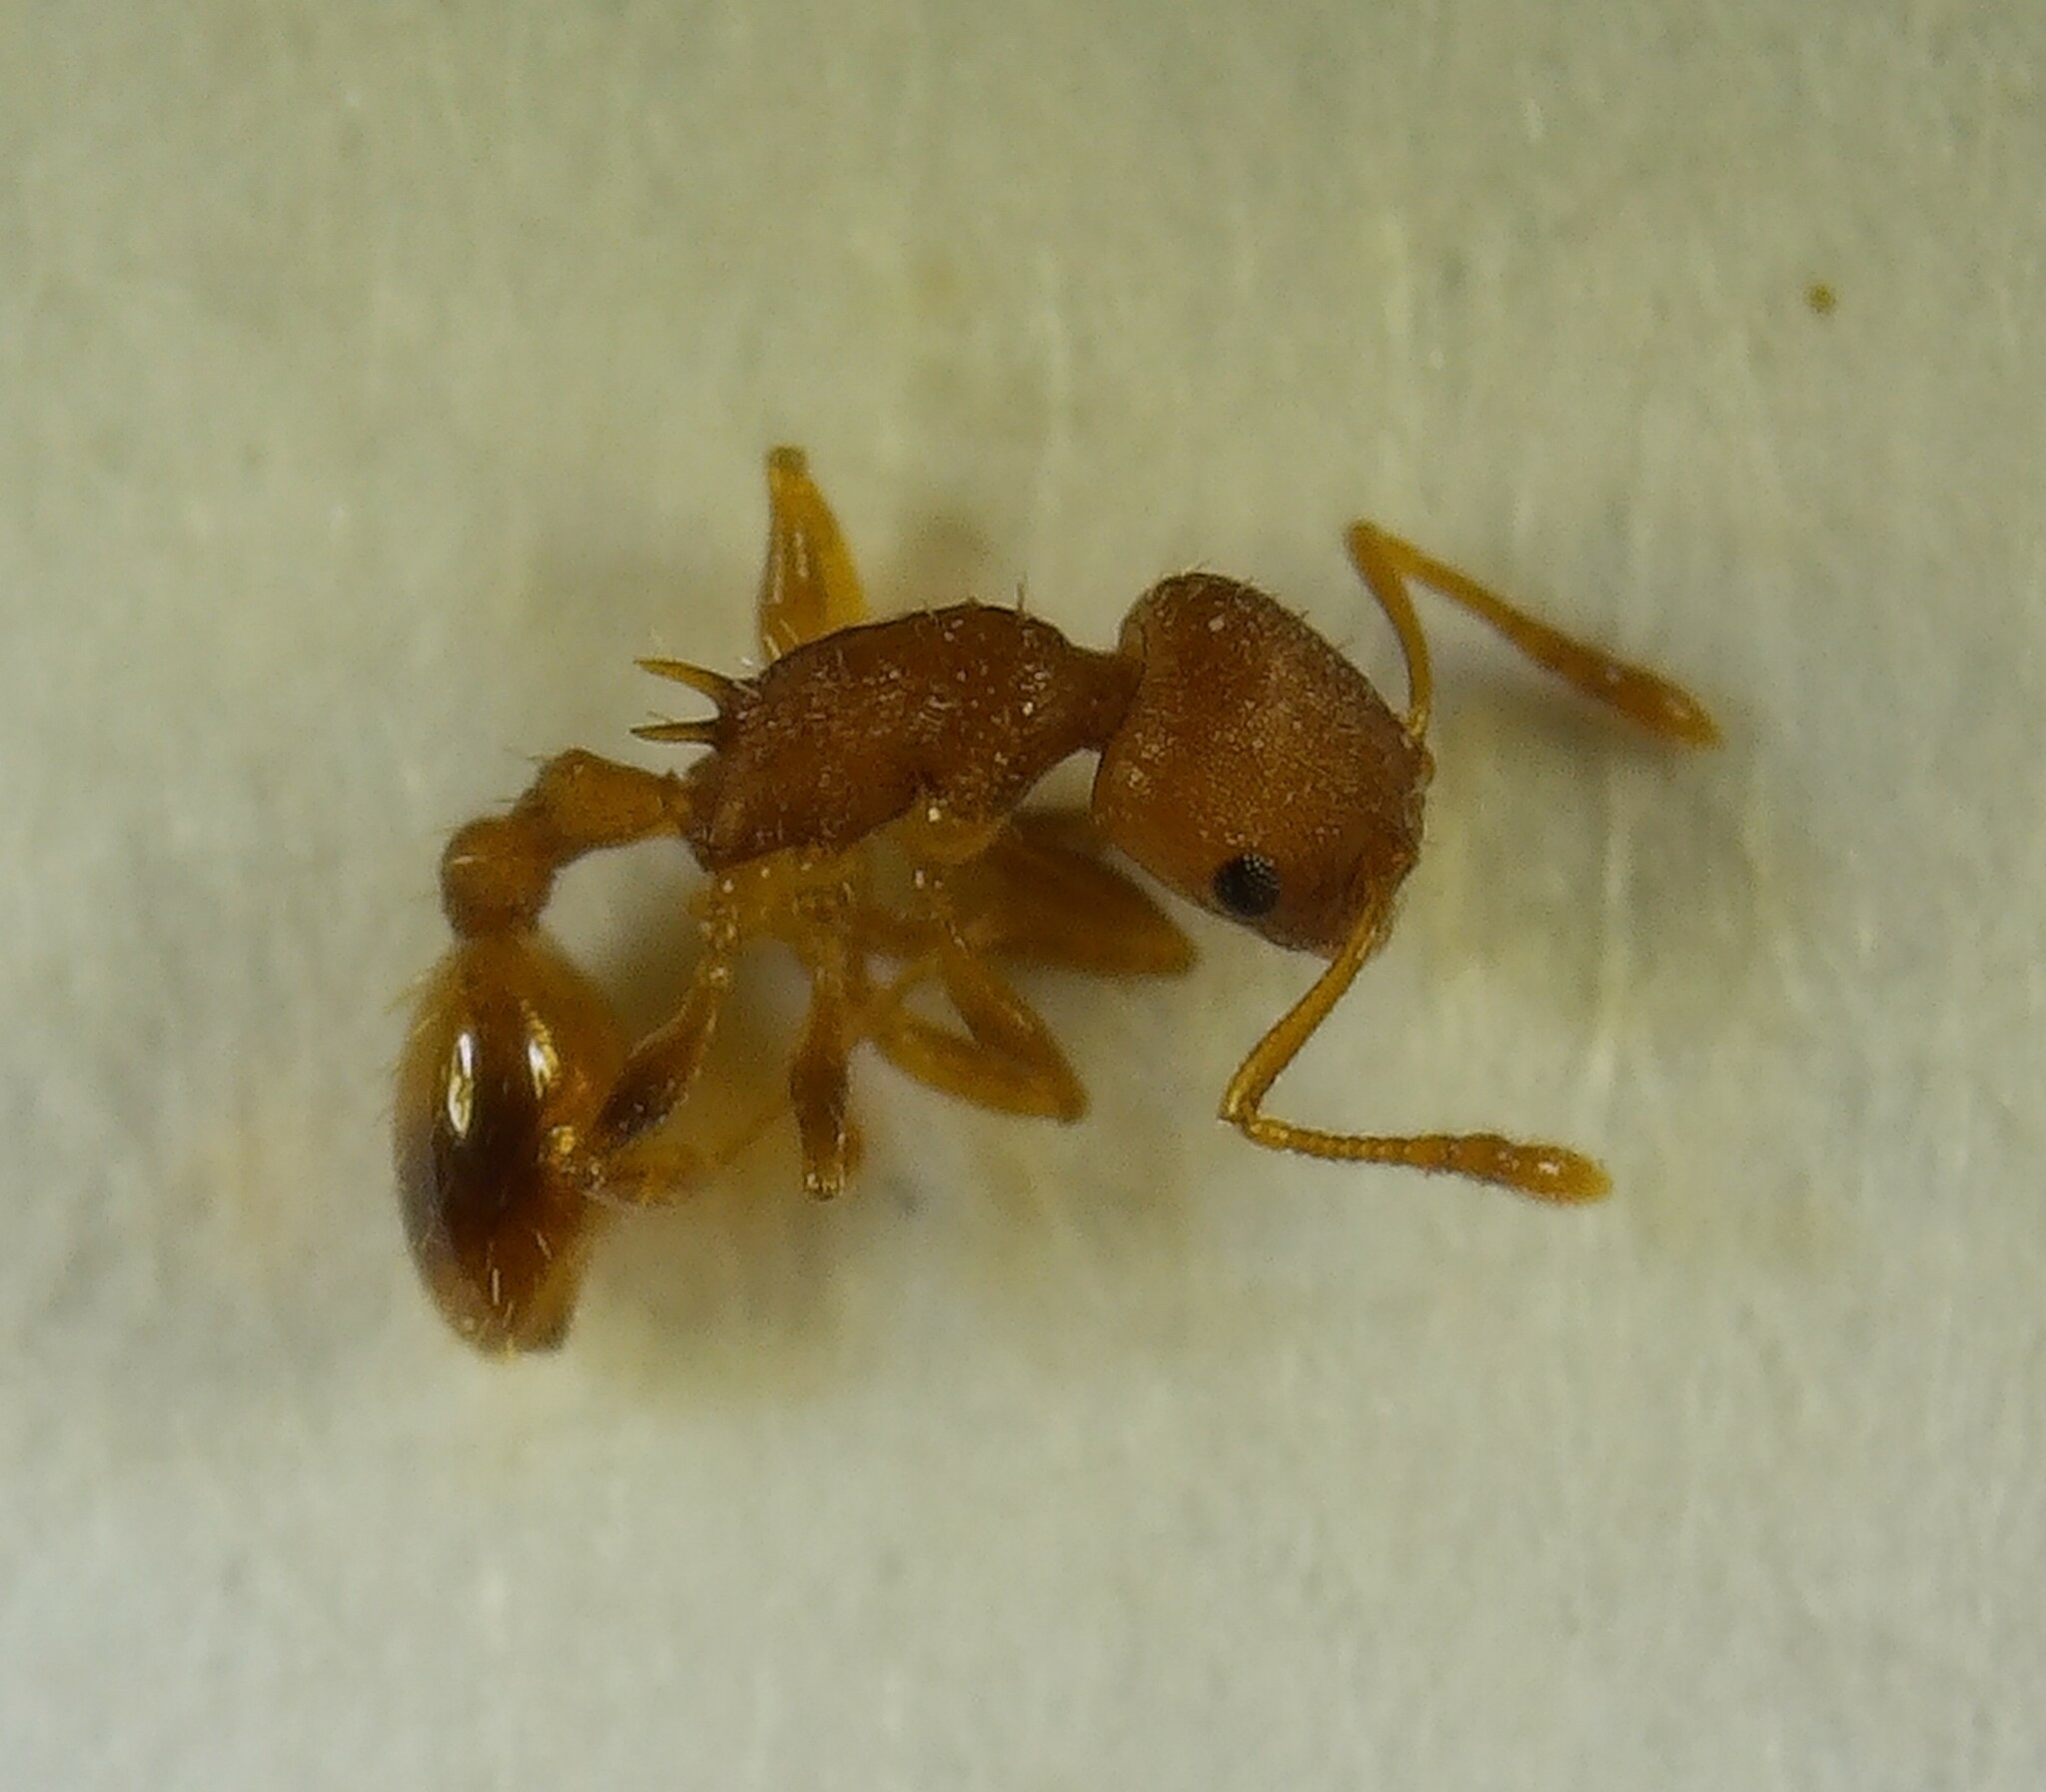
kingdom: Animalia
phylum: Arthropoda
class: Insecta
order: Hymenoptera
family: Formicidae
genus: Temnothorax
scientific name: Temnothorax curvispinosus
